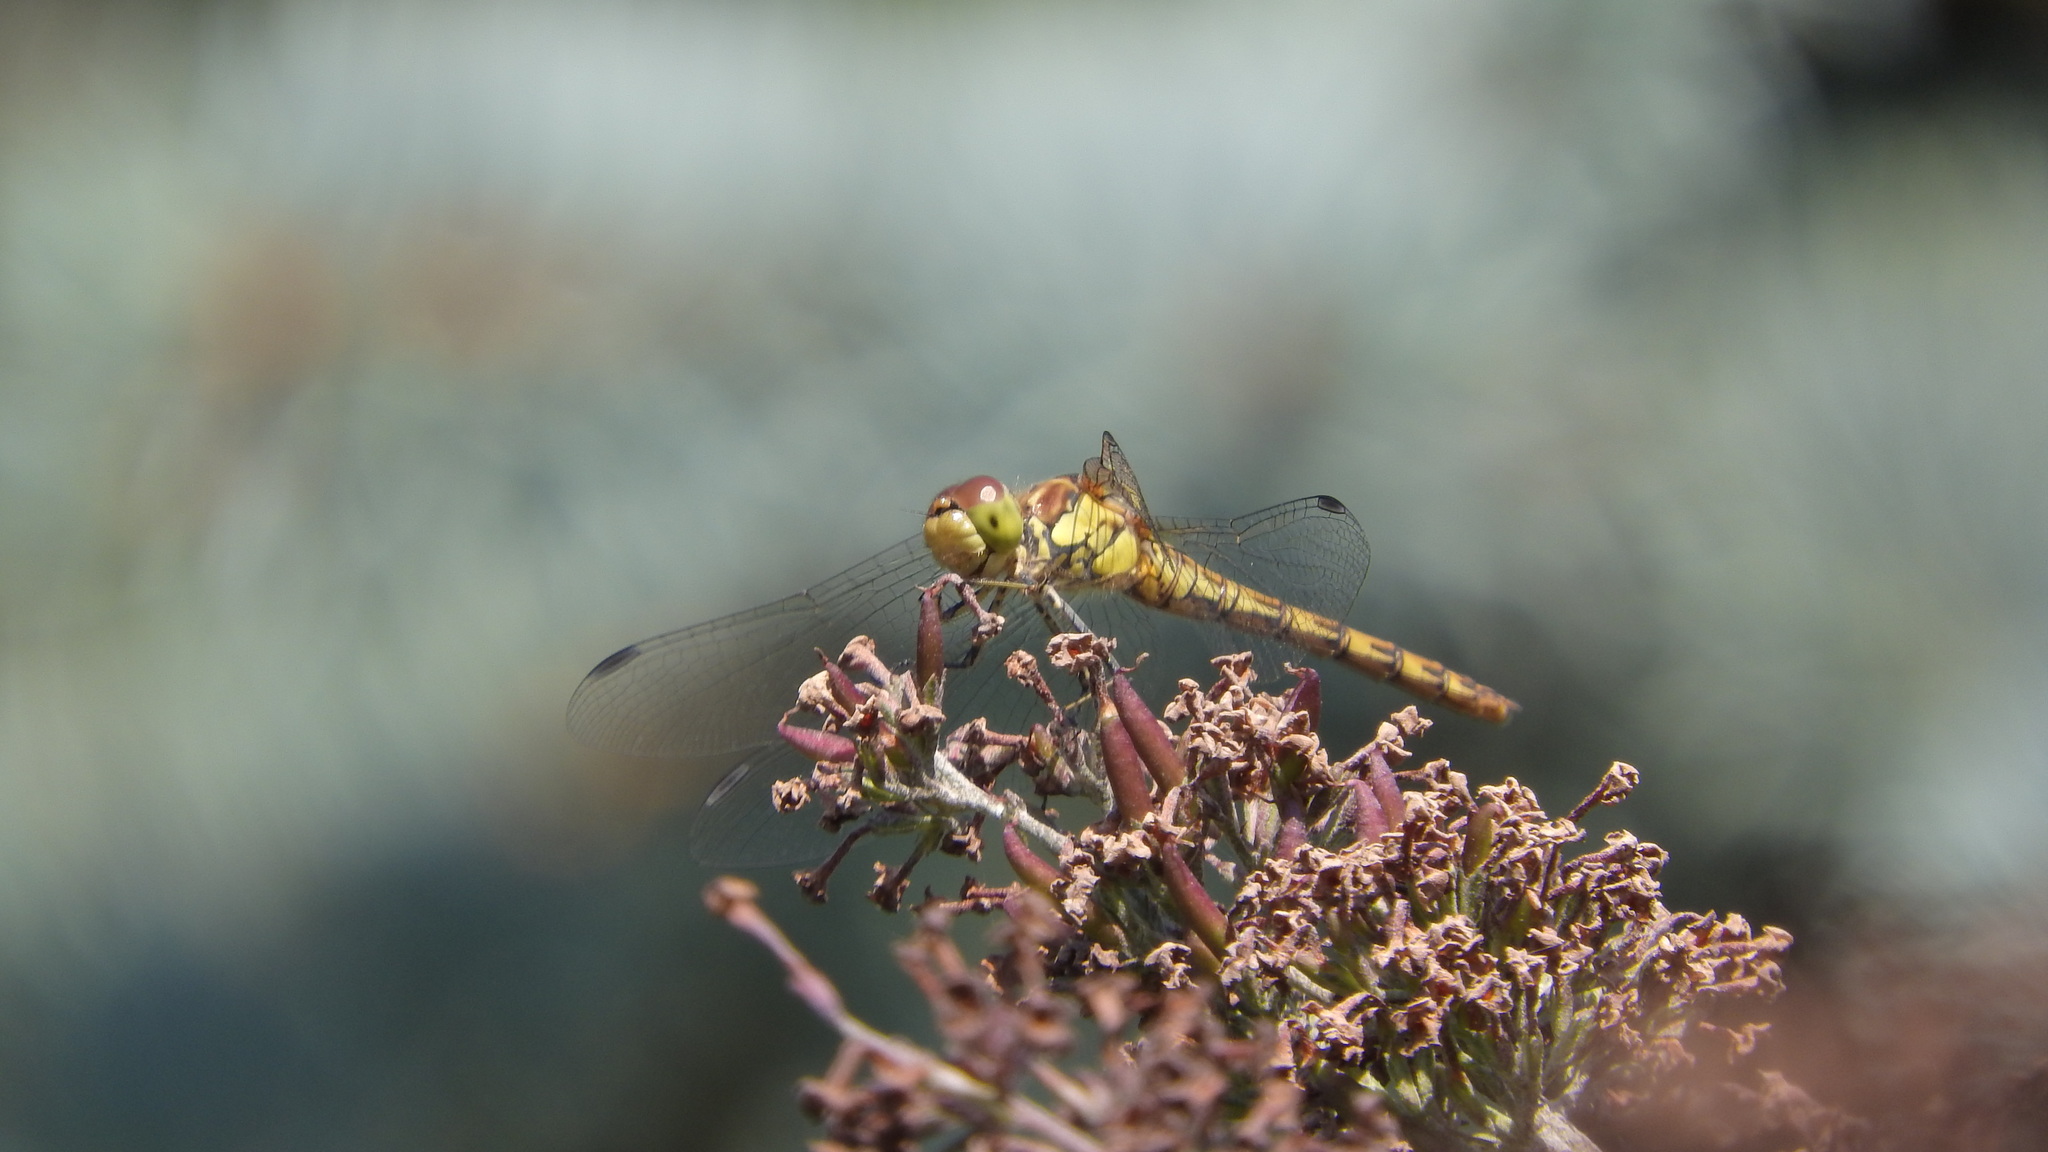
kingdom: Animalia
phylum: Arthropoda
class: Insecta
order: Odonata
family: Libellulidae
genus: Sympetrum
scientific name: Sympetrum striolatum
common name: Common darter
